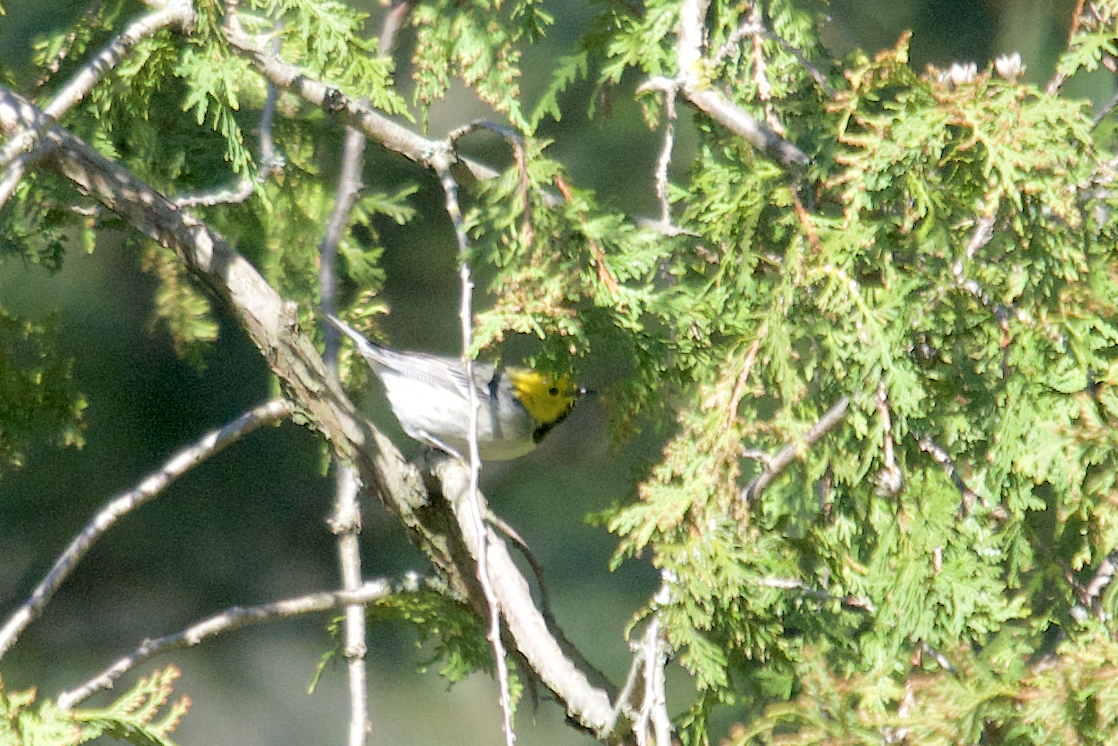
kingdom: Animalia
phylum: Chordata
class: Aves
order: Passeriformes
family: Parulidae
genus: Setophaga
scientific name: Setophaga occidentalis
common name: Hermit warbler
